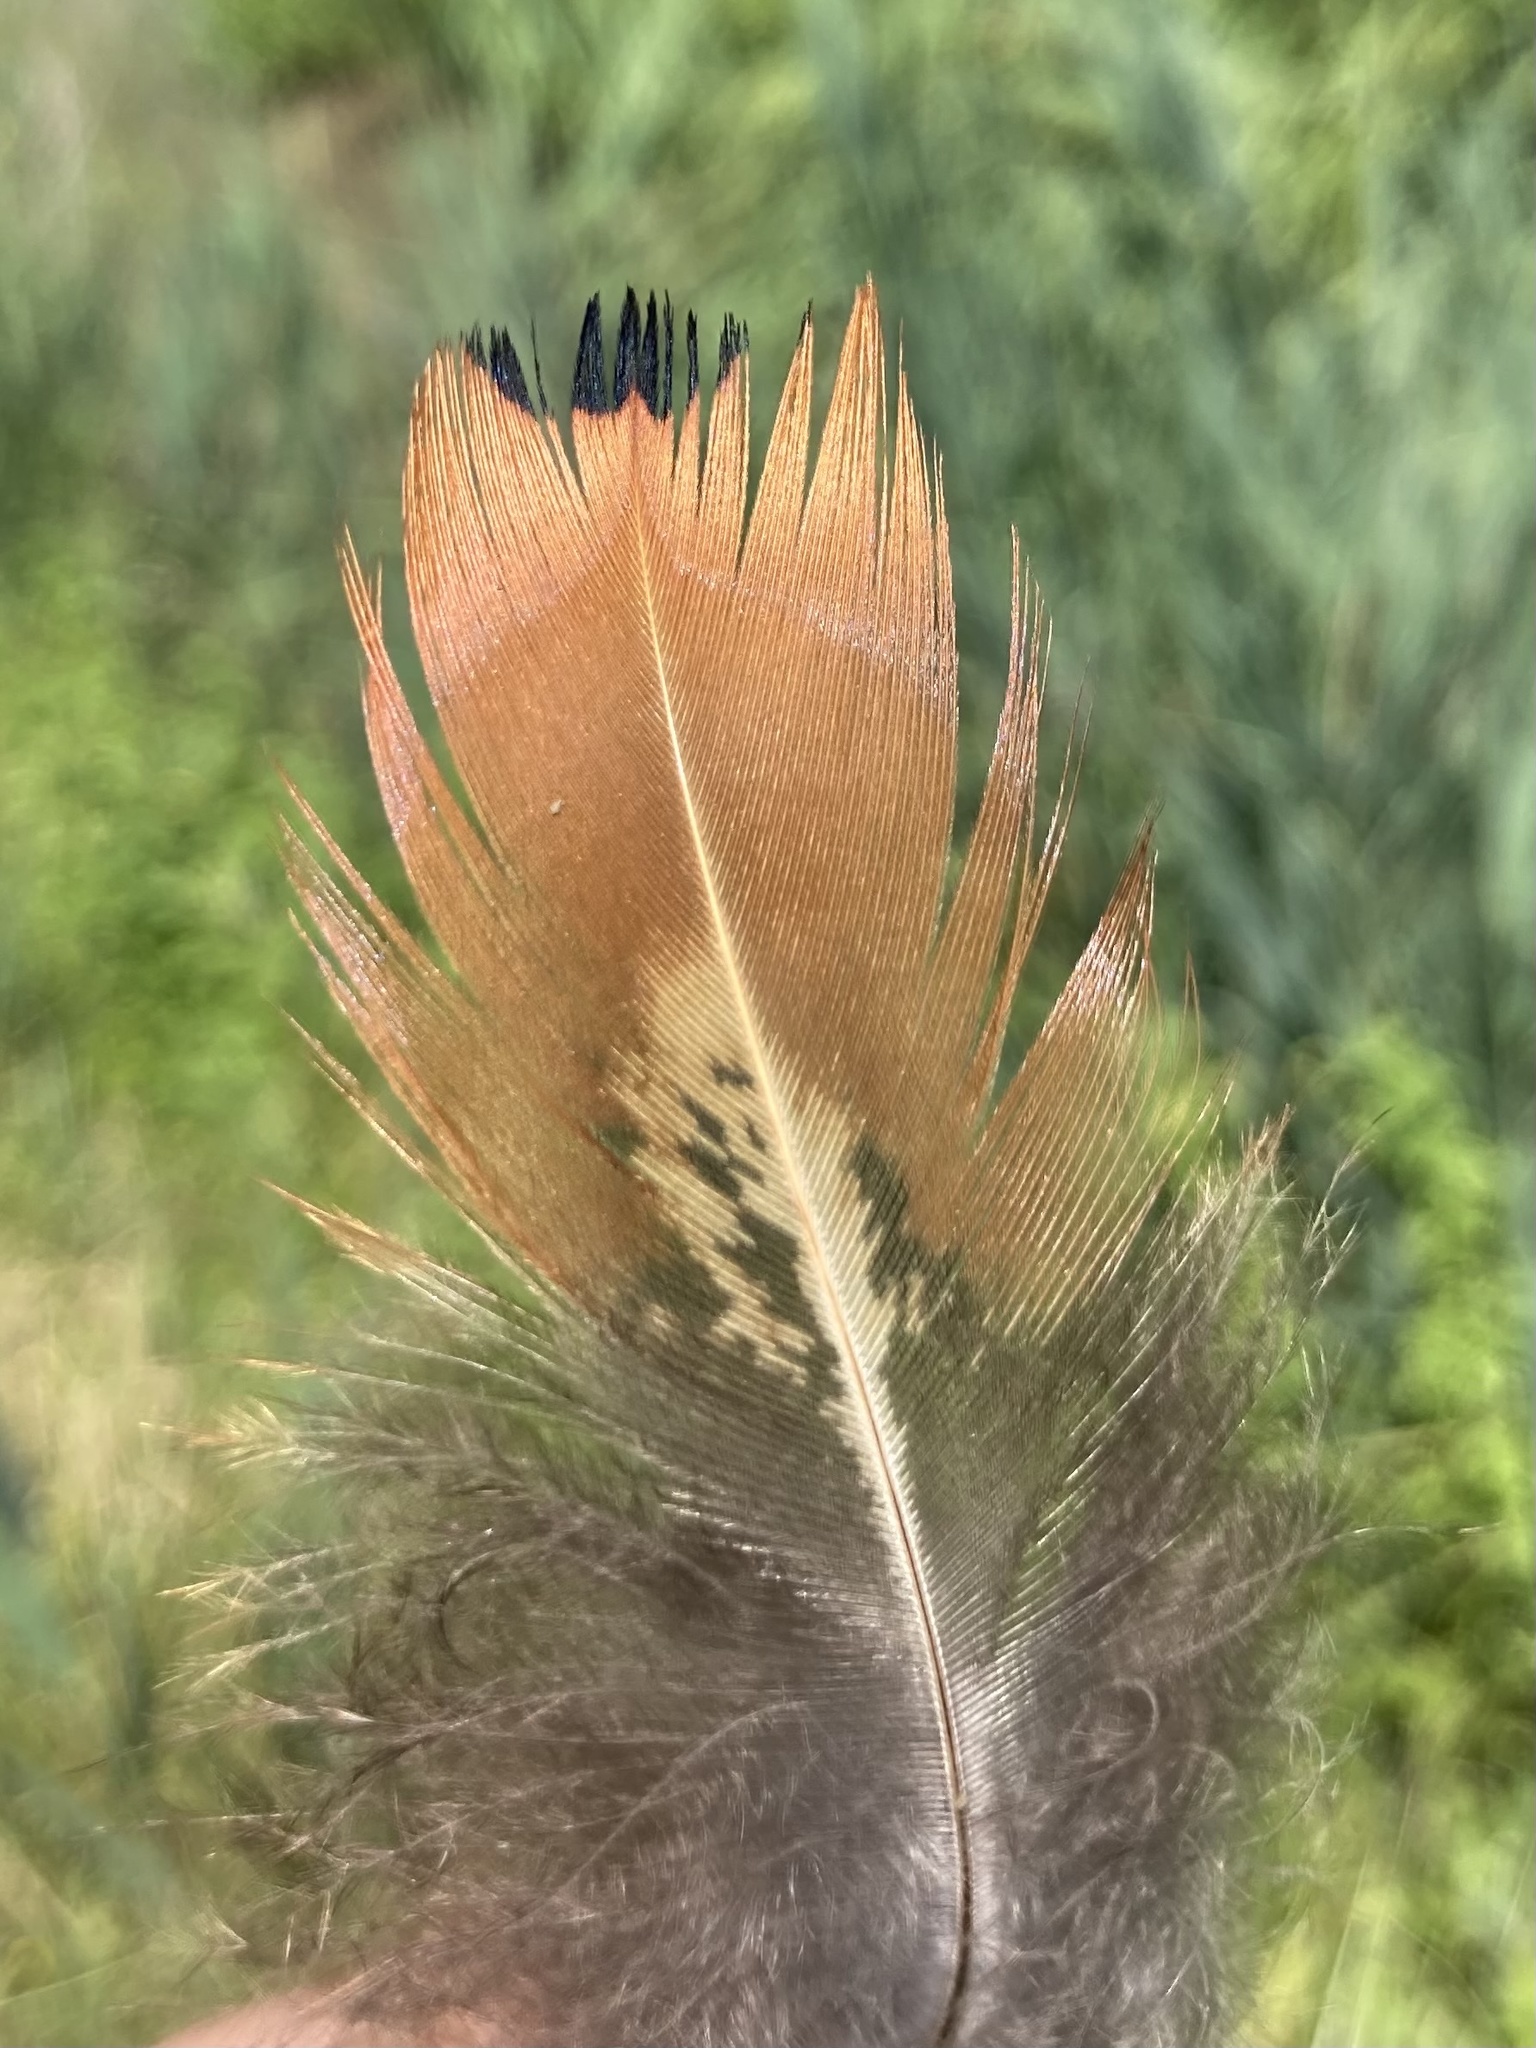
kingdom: Animalia
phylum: Chordata
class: Aves
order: Galliformes
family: Phasianidae
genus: Phasianus
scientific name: Phasianus colchicus
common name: Common pheasant
